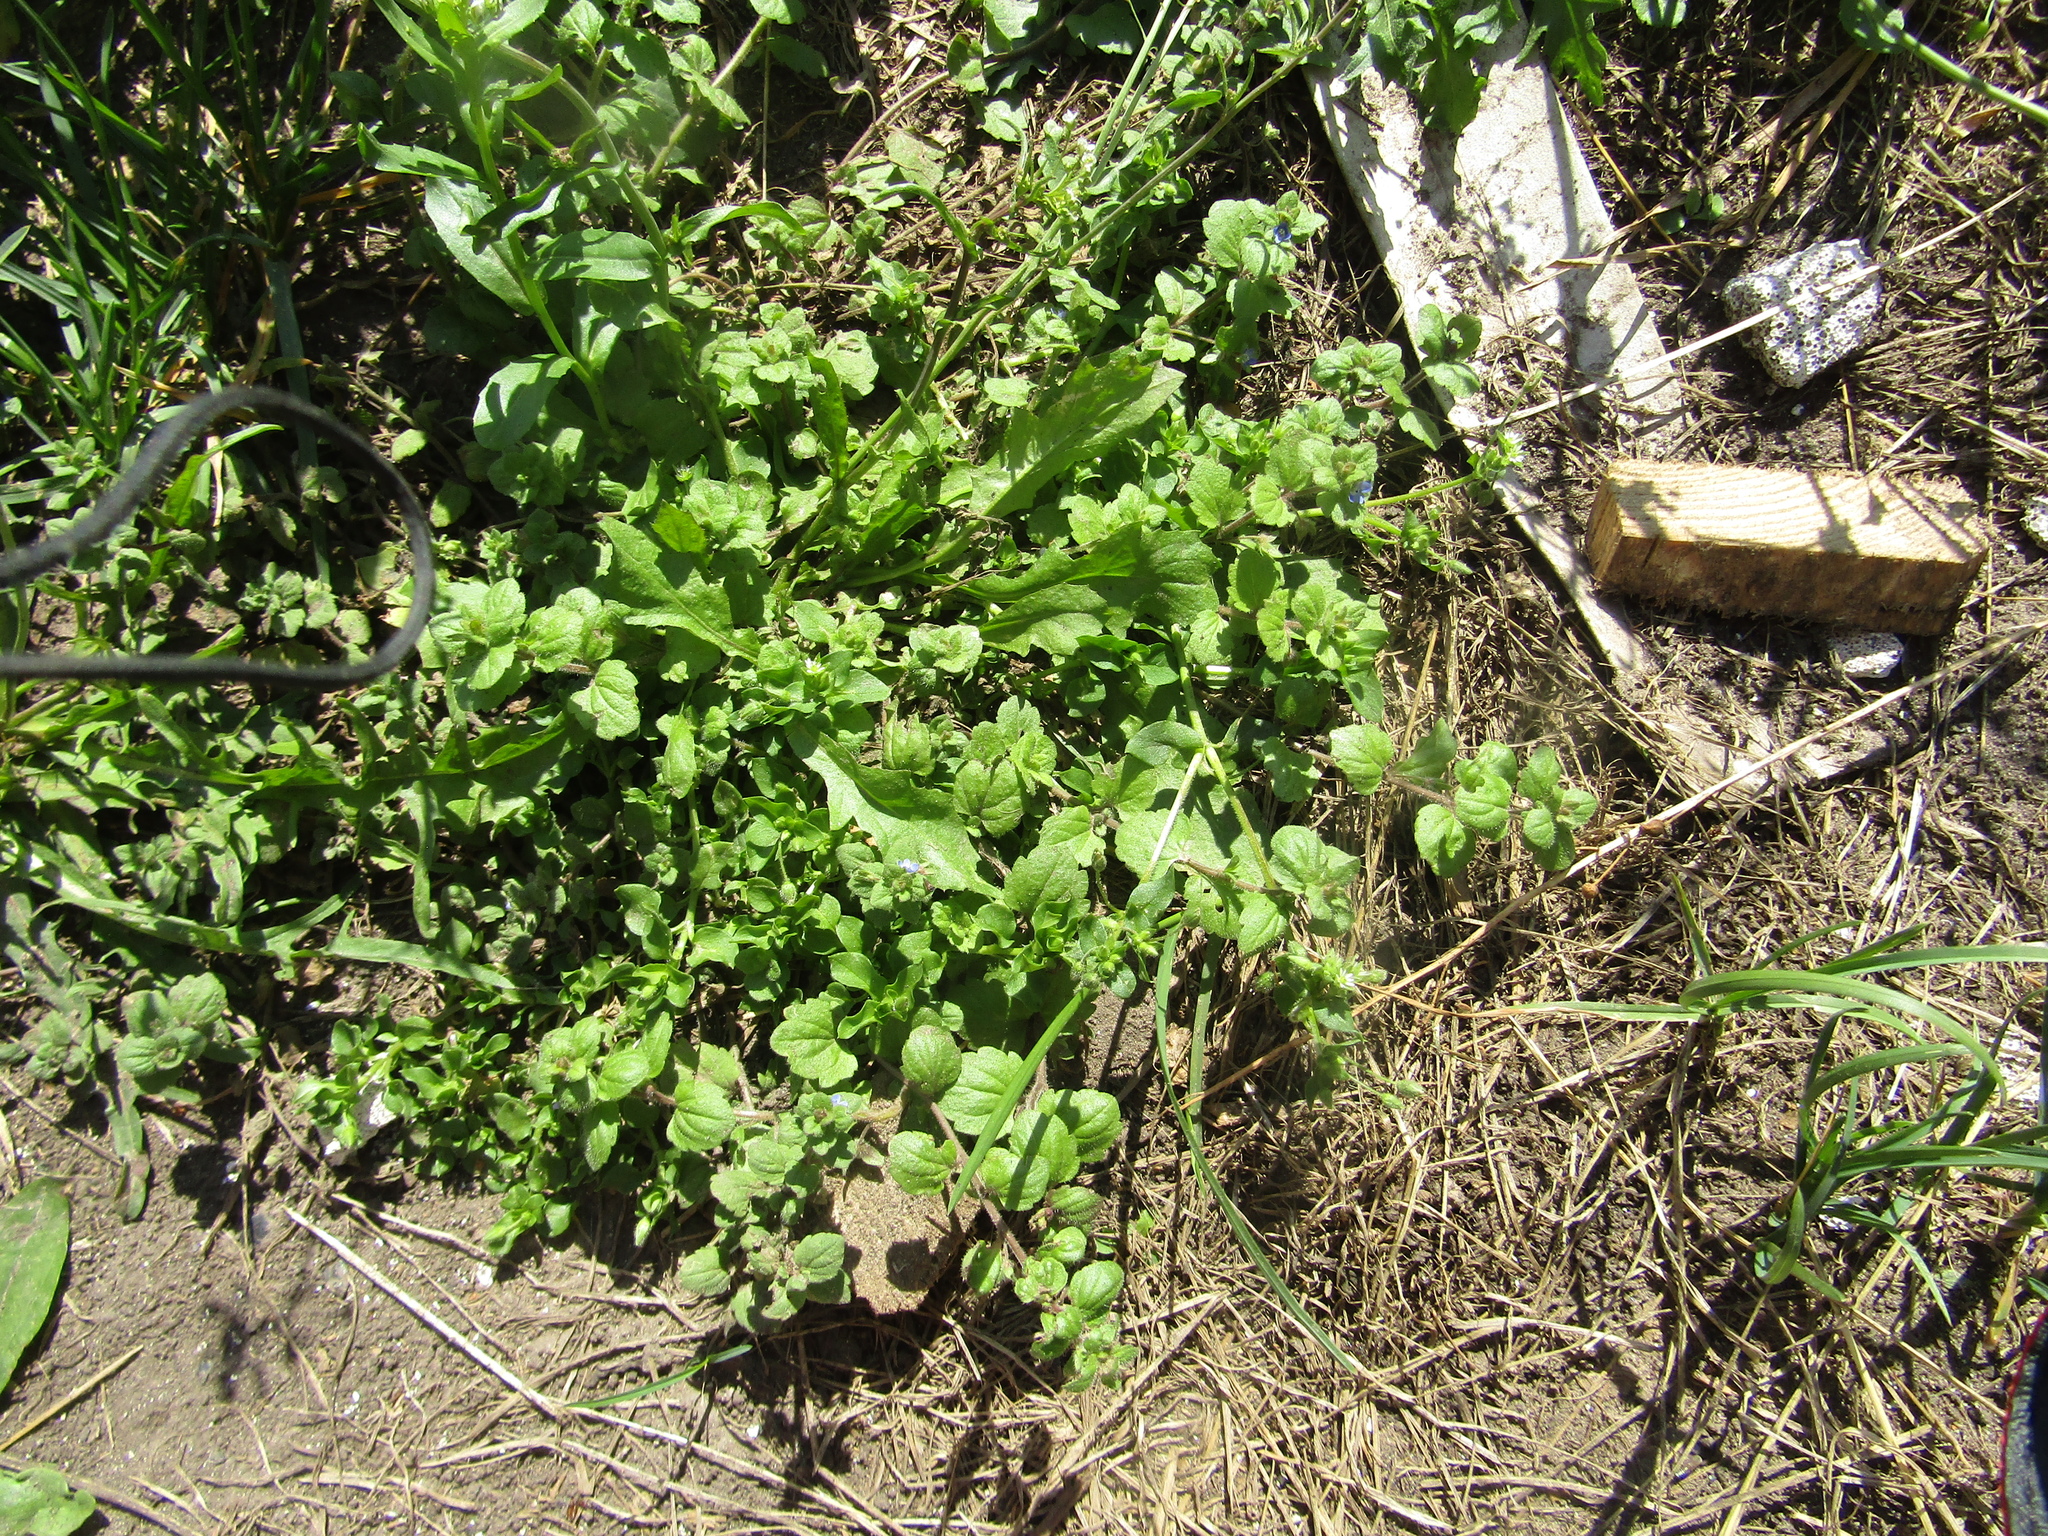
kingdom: Plantae
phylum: Tracheophyta
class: Magnoliopsida
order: Lamiales
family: Plantaginaceae
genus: Veronica
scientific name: Veronica opaca
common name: Dark speedwell
